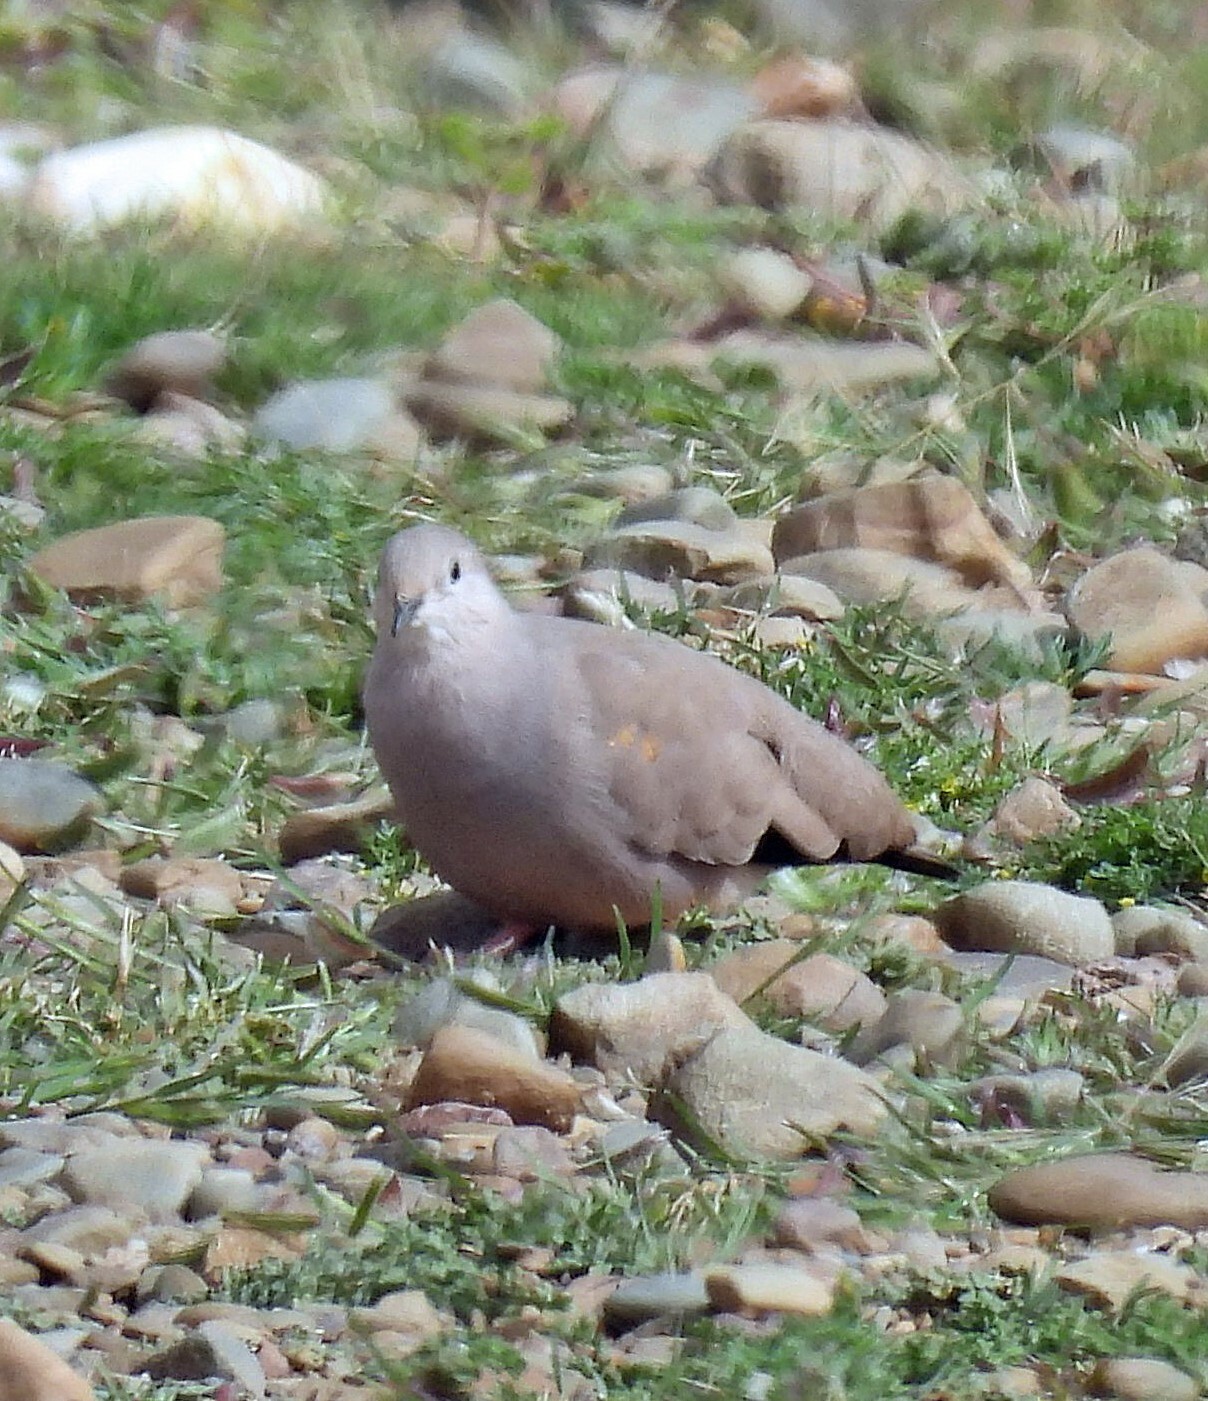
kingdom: Animalia
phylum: Chordata
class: Aves
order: Columbiformes
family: Columbidae
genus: Metriopelia
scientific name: Metriopelia aymara
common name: Golden-spotted ground dove
